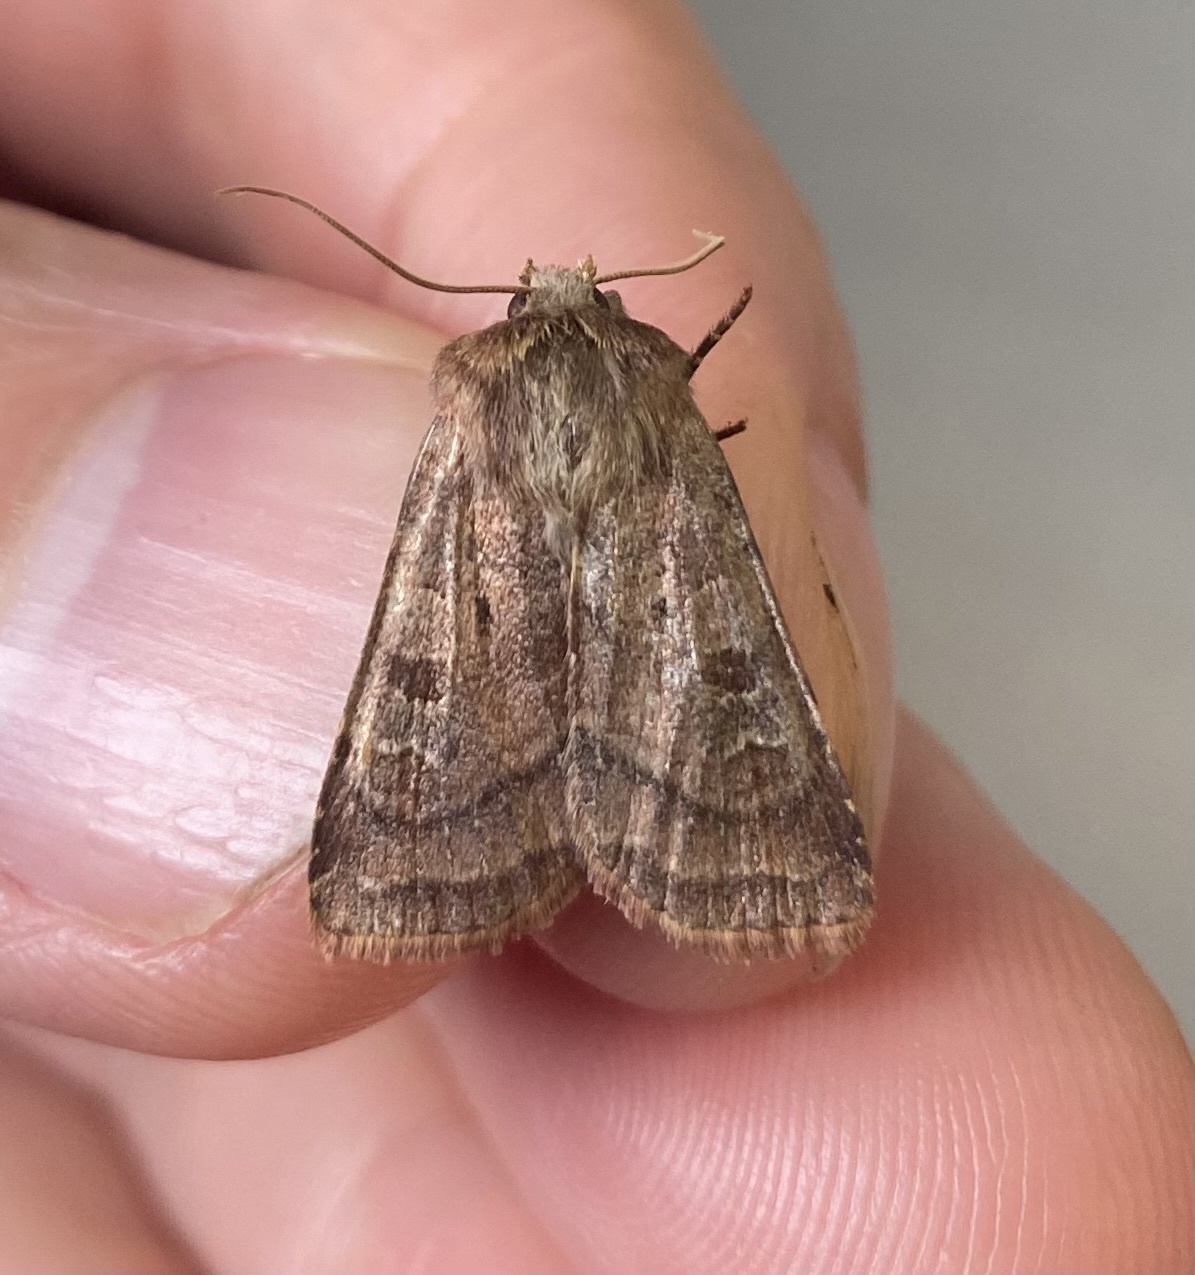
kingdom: Animalia
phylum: Arthropoda
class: Insecta
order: Lepidoptera
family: Noctuidae
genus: Diarsia
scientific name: Diarsia rubi
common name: Small square-spot
